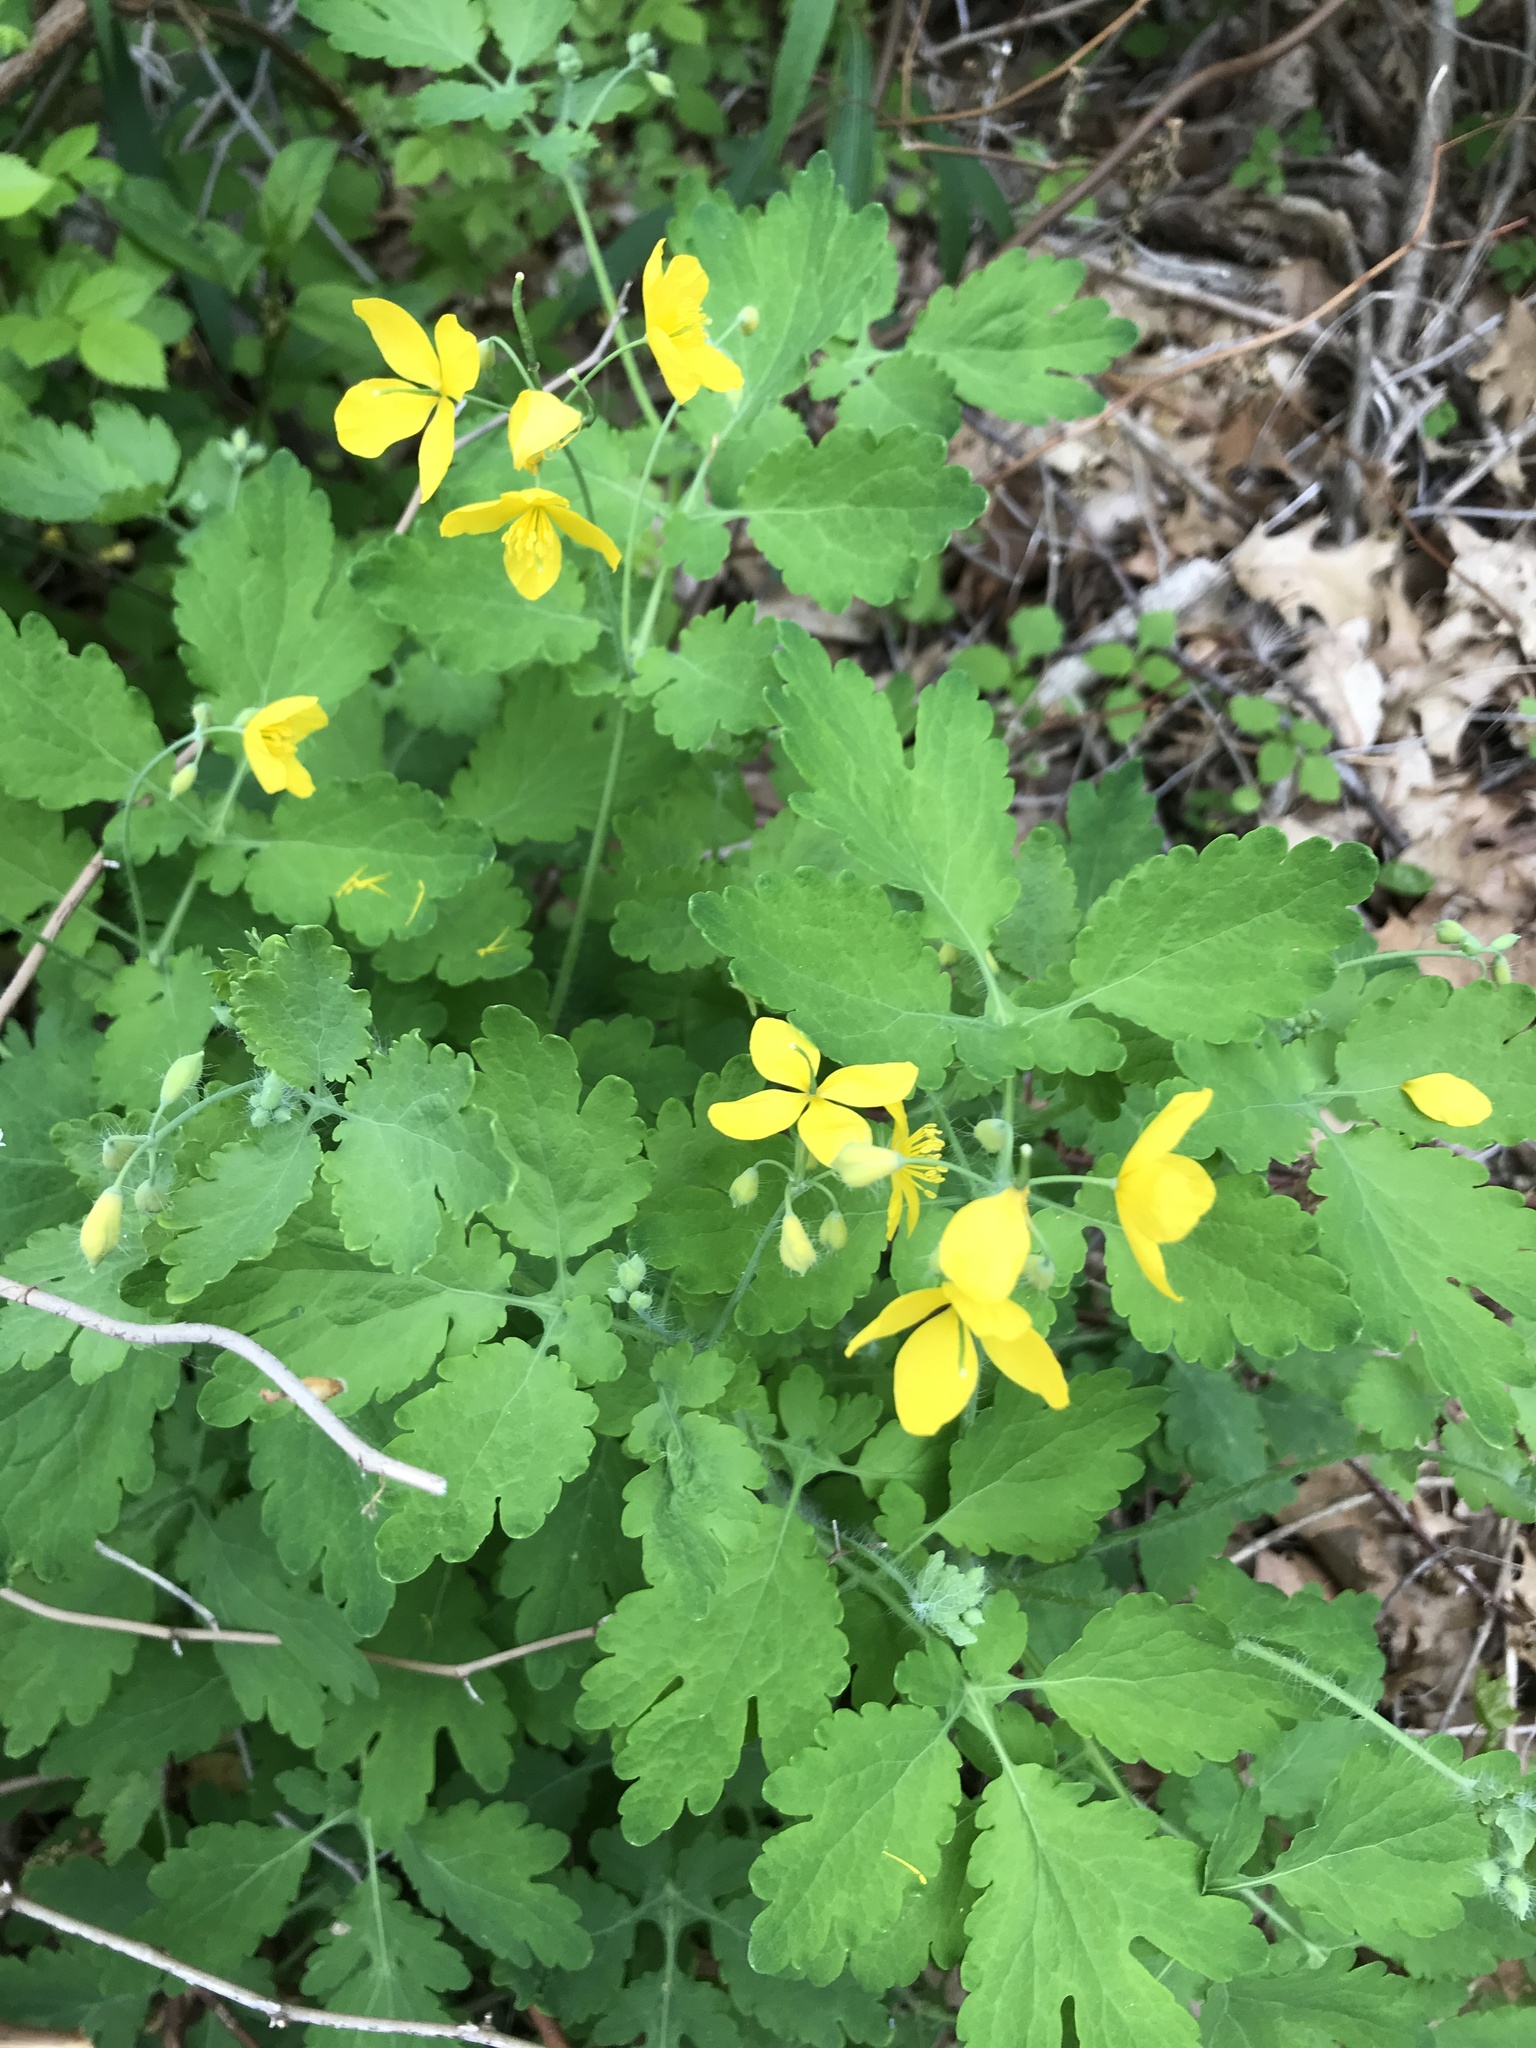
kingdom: Plantae
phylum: Tracheophyta
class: Magnoliopsida
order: Ranunculales
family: Papaveraceae
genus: Chelidonium
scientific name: Chelidonium majus
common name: Greater celandine
